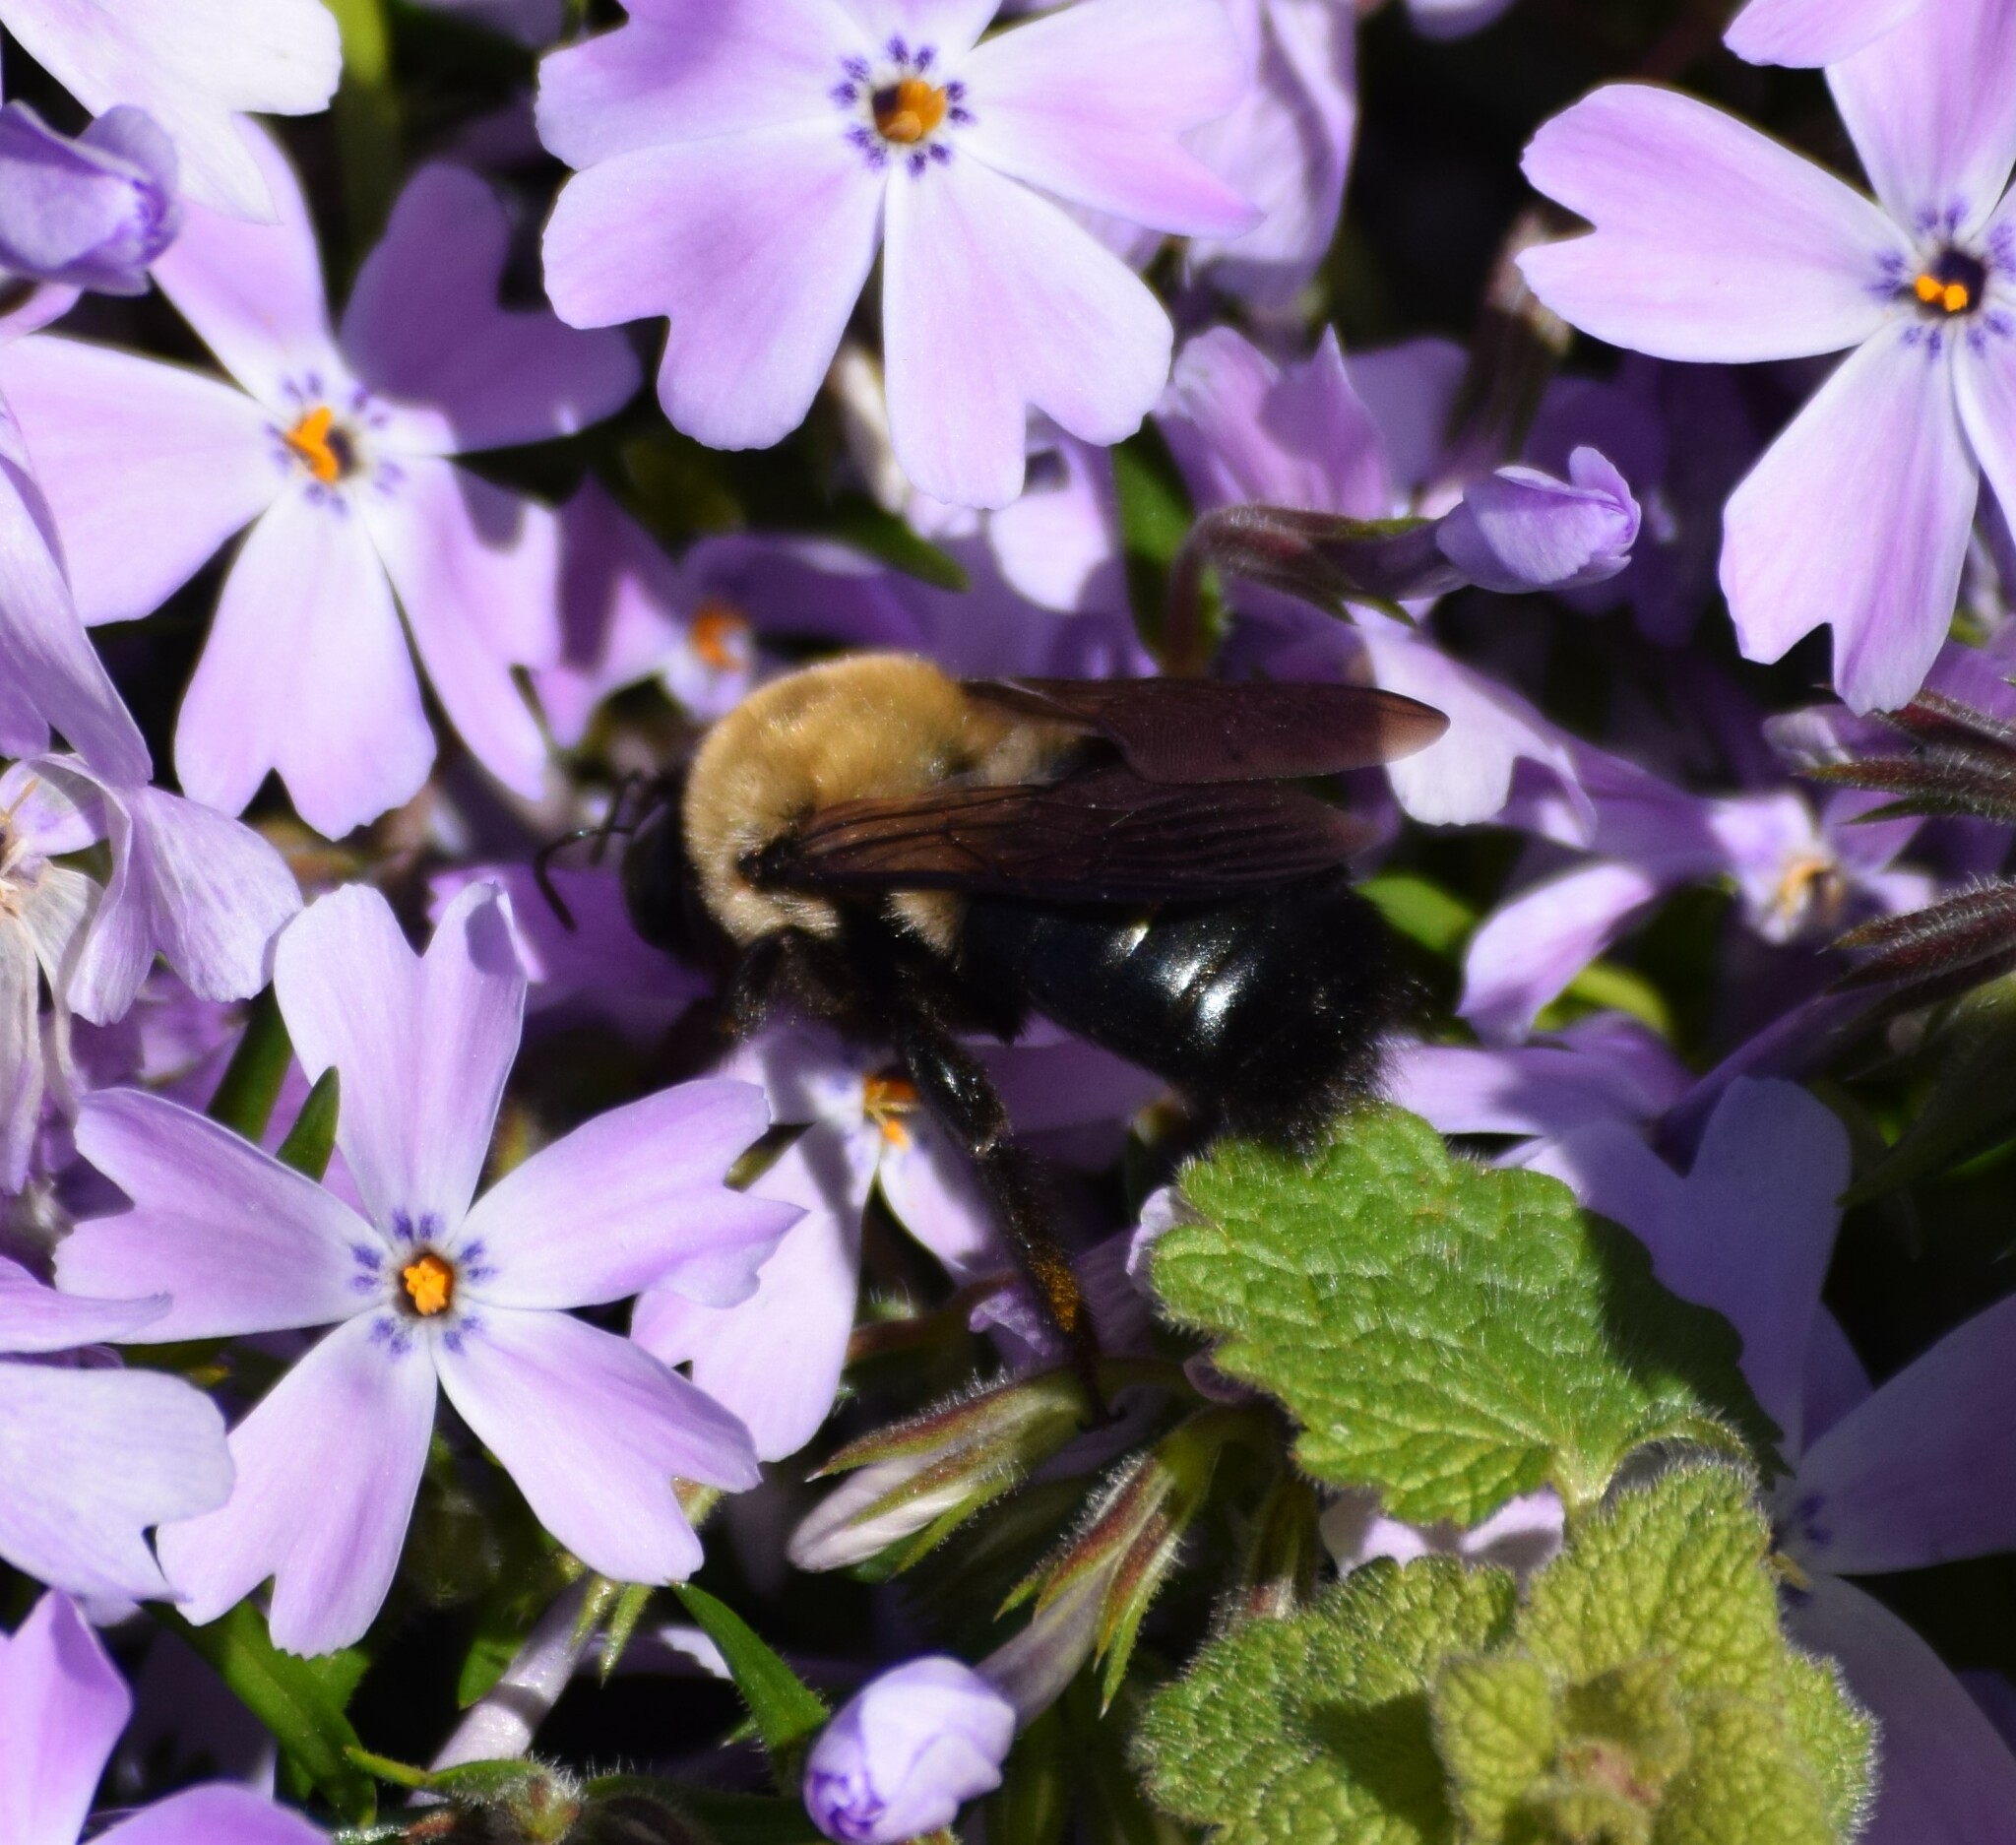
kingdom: Animalia
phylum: Arthropoda
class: Insecta
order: Hymenoptera
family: Apidae
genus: Xylocopa
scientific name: Xylocopa virginica
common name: Carpenter bee
